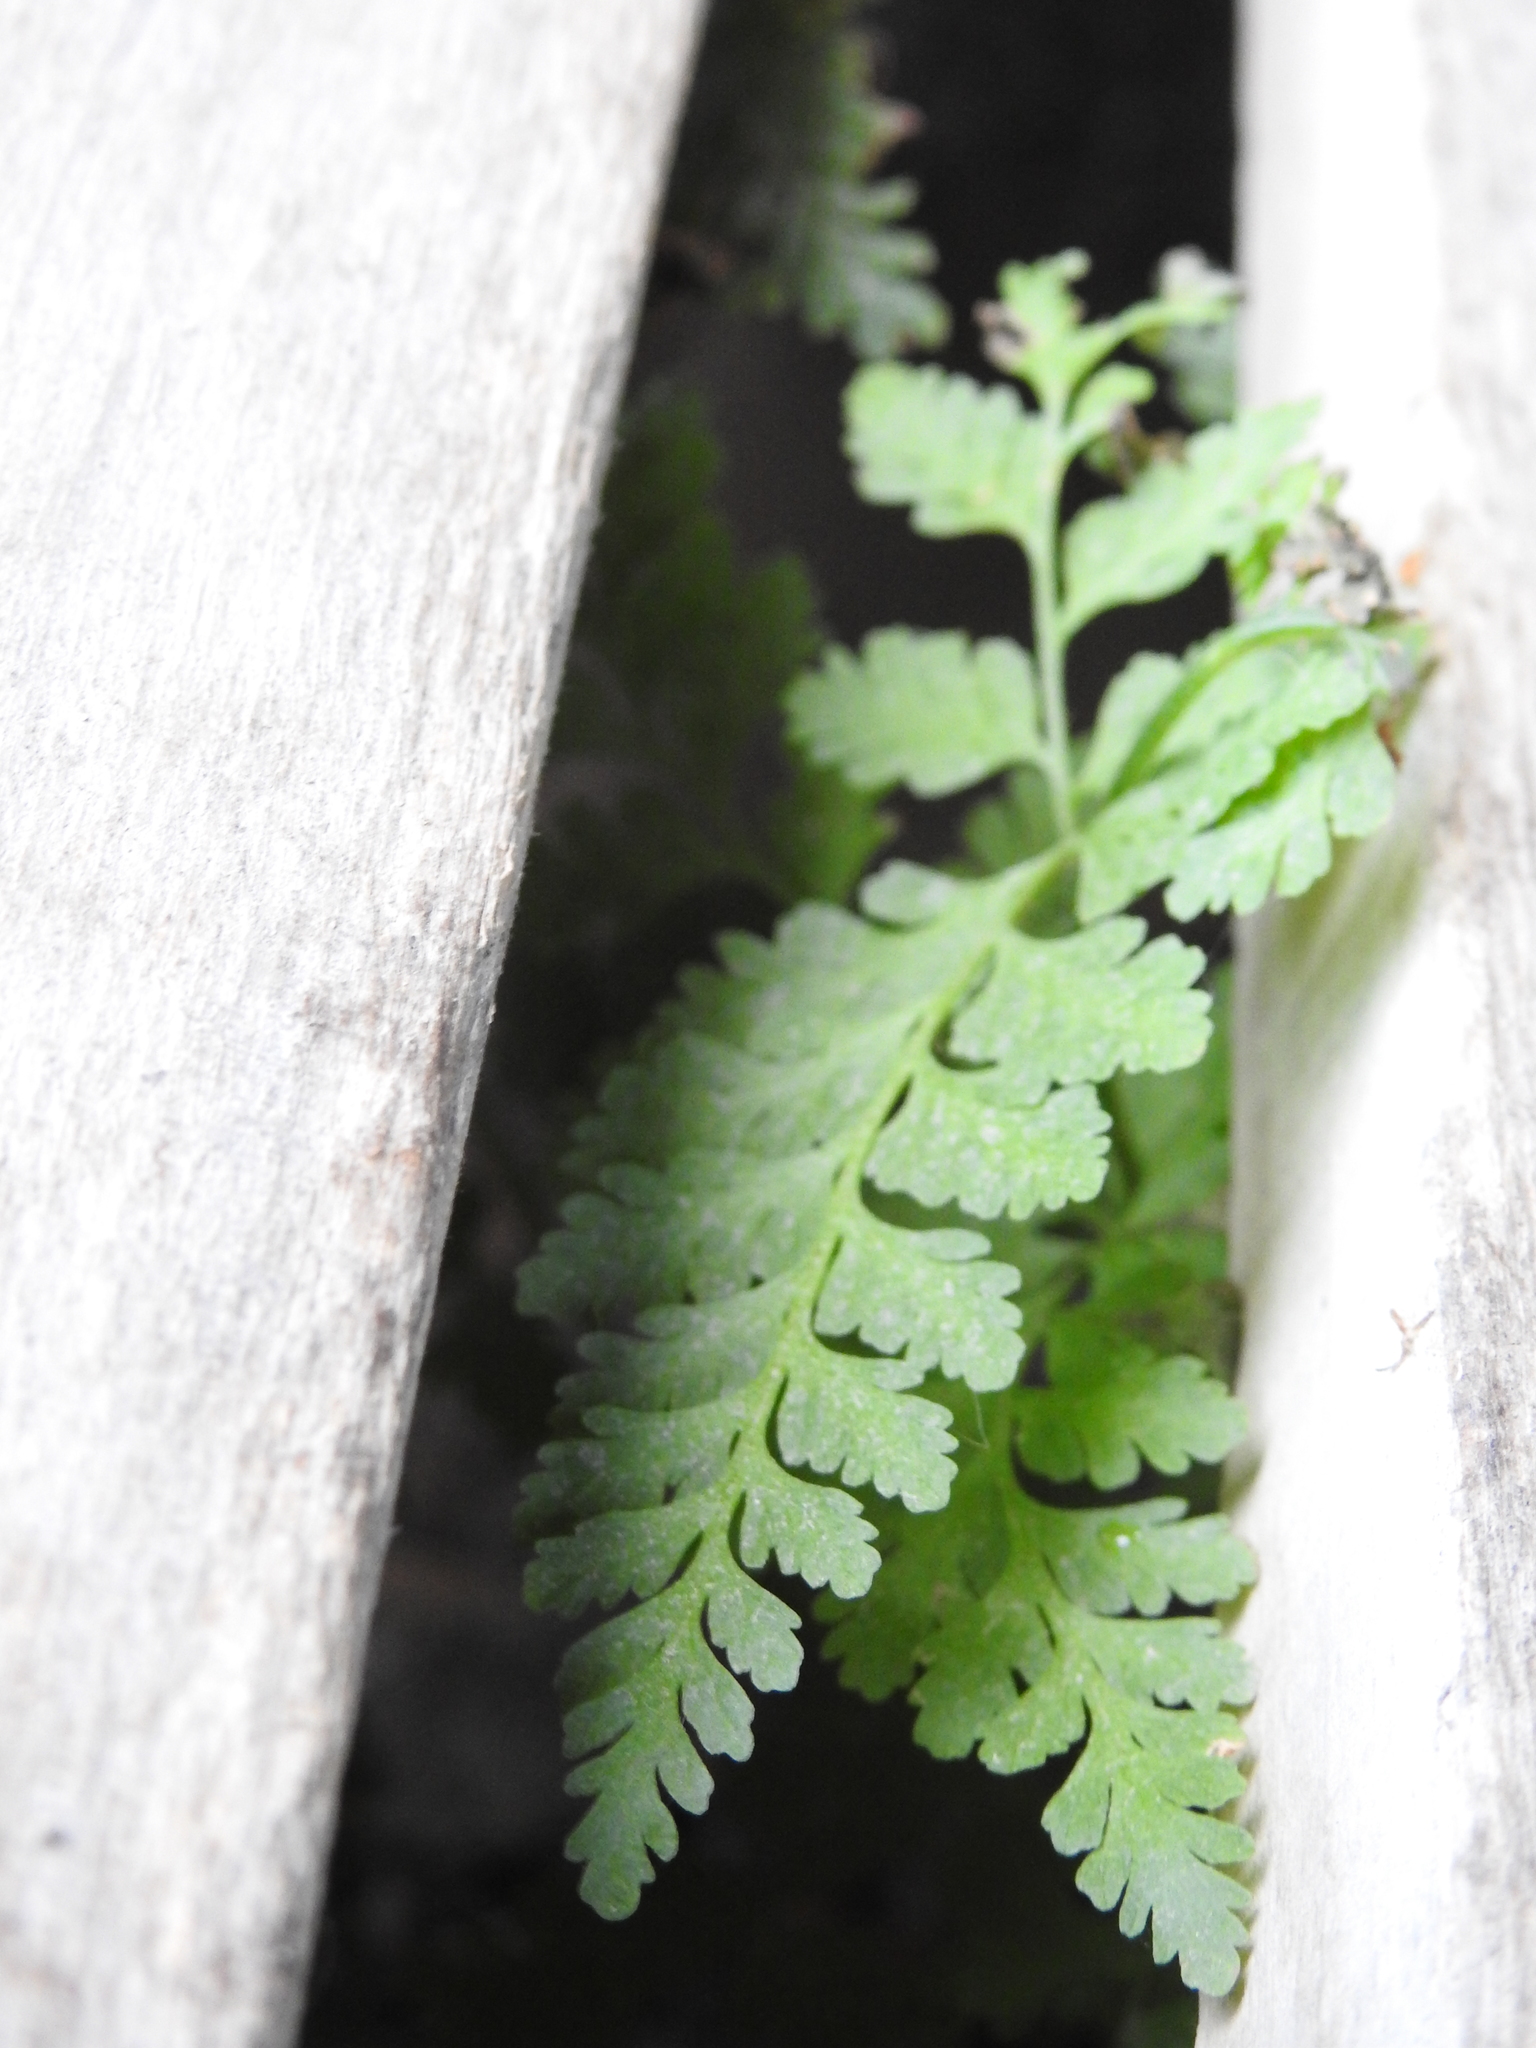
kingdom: Plantae
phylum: Tracheophyta
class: Polypodiopsida
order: Polypodiales
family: Cystopteridaceae
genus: Cystopteris
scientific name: Cystopteris
